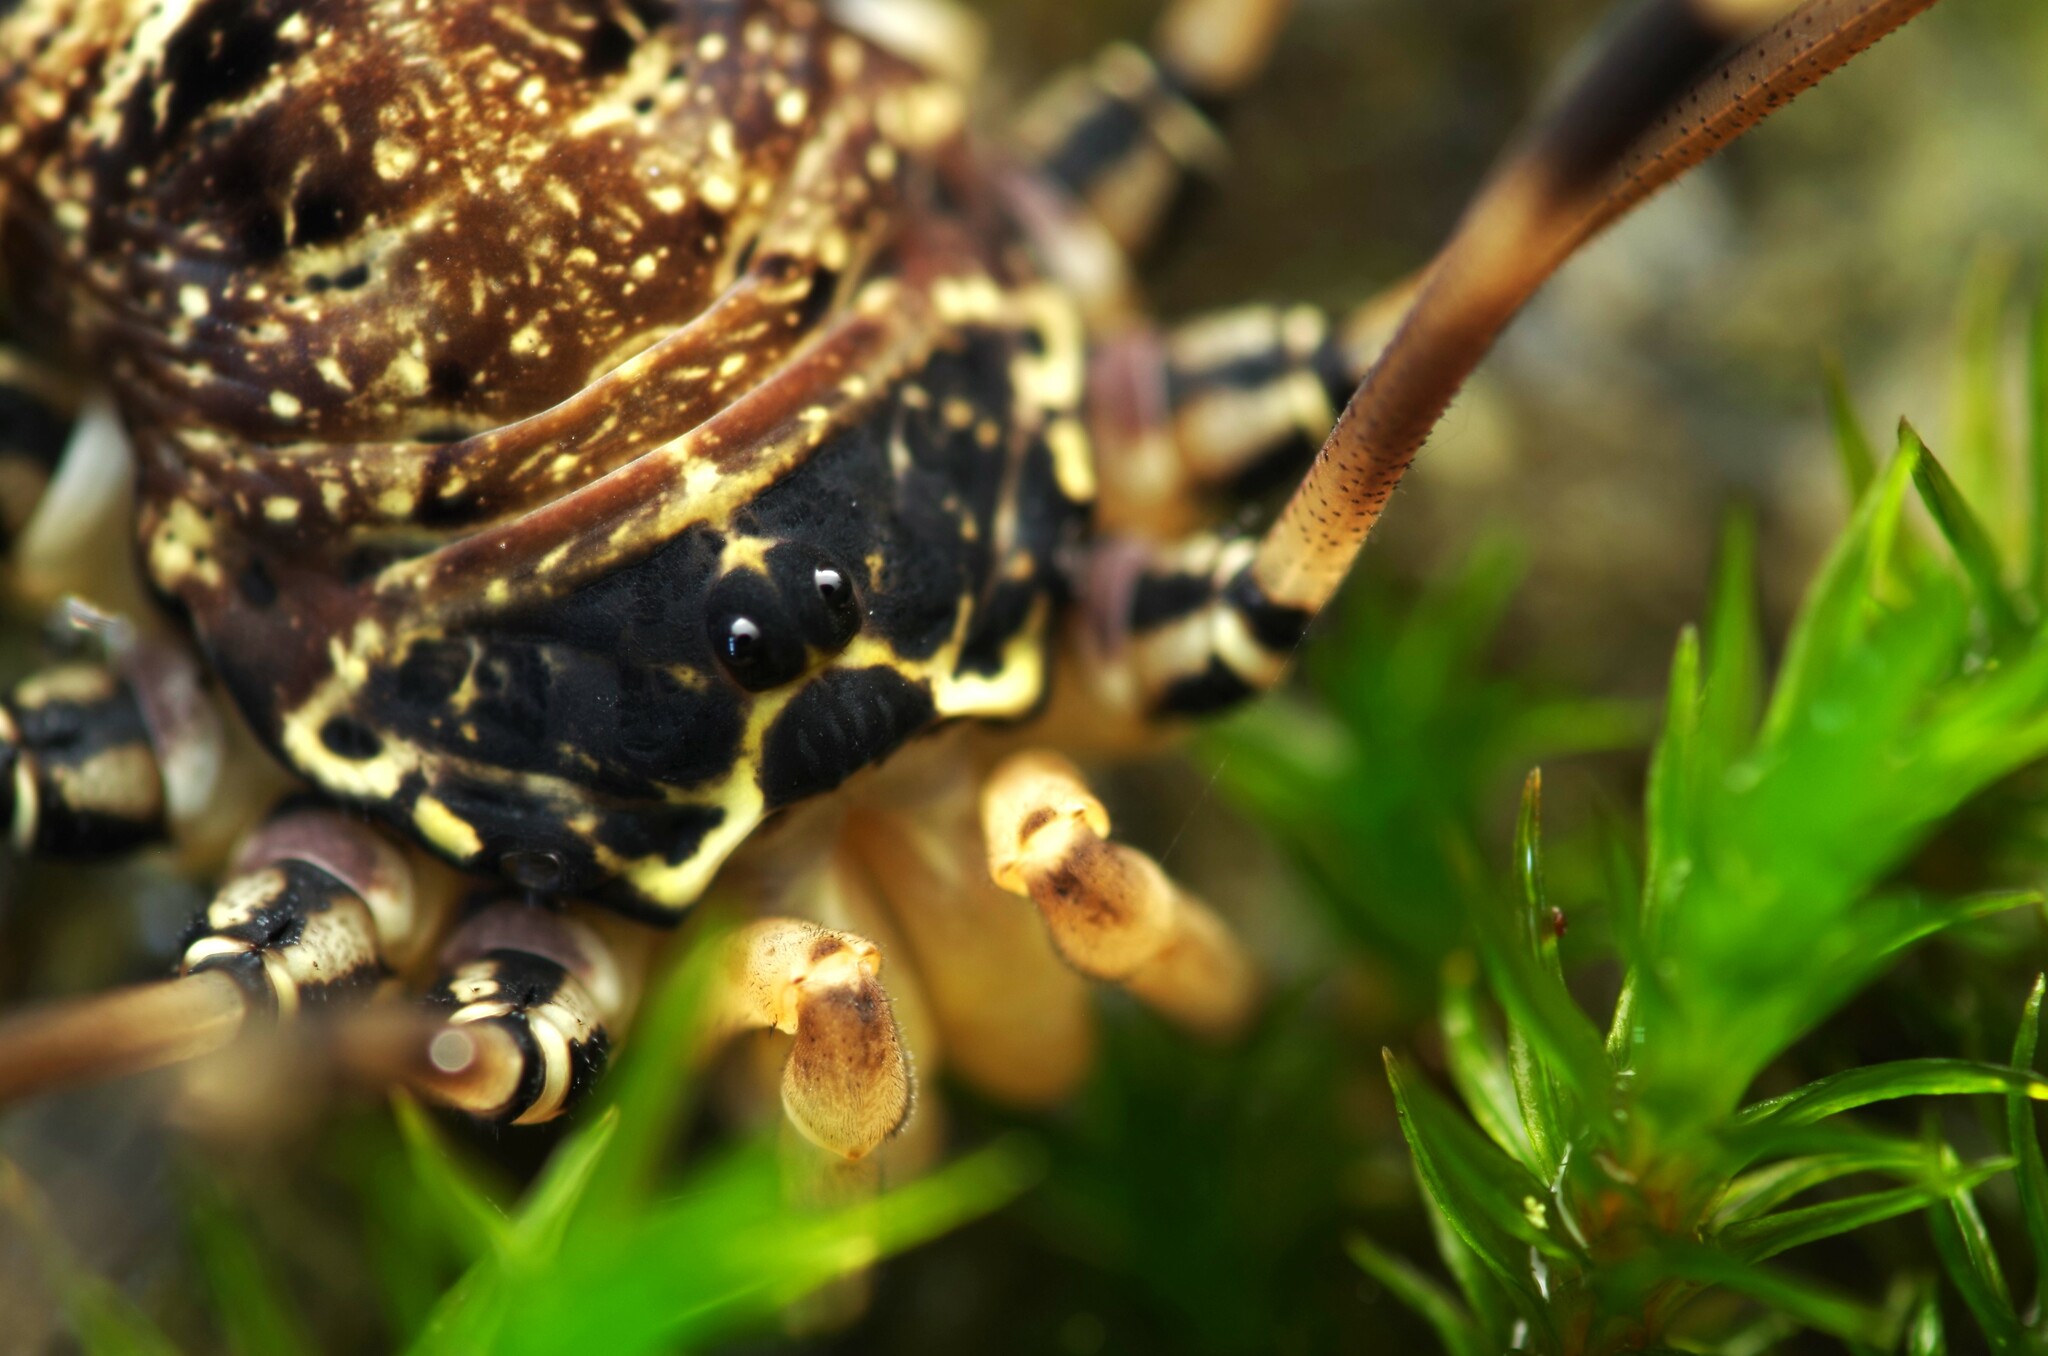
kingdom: Animalia
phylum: Arthropoda
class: Arachnida
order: Opiliones
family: Sclerosomatidae
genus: Gyas
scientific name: Gyas titanus
